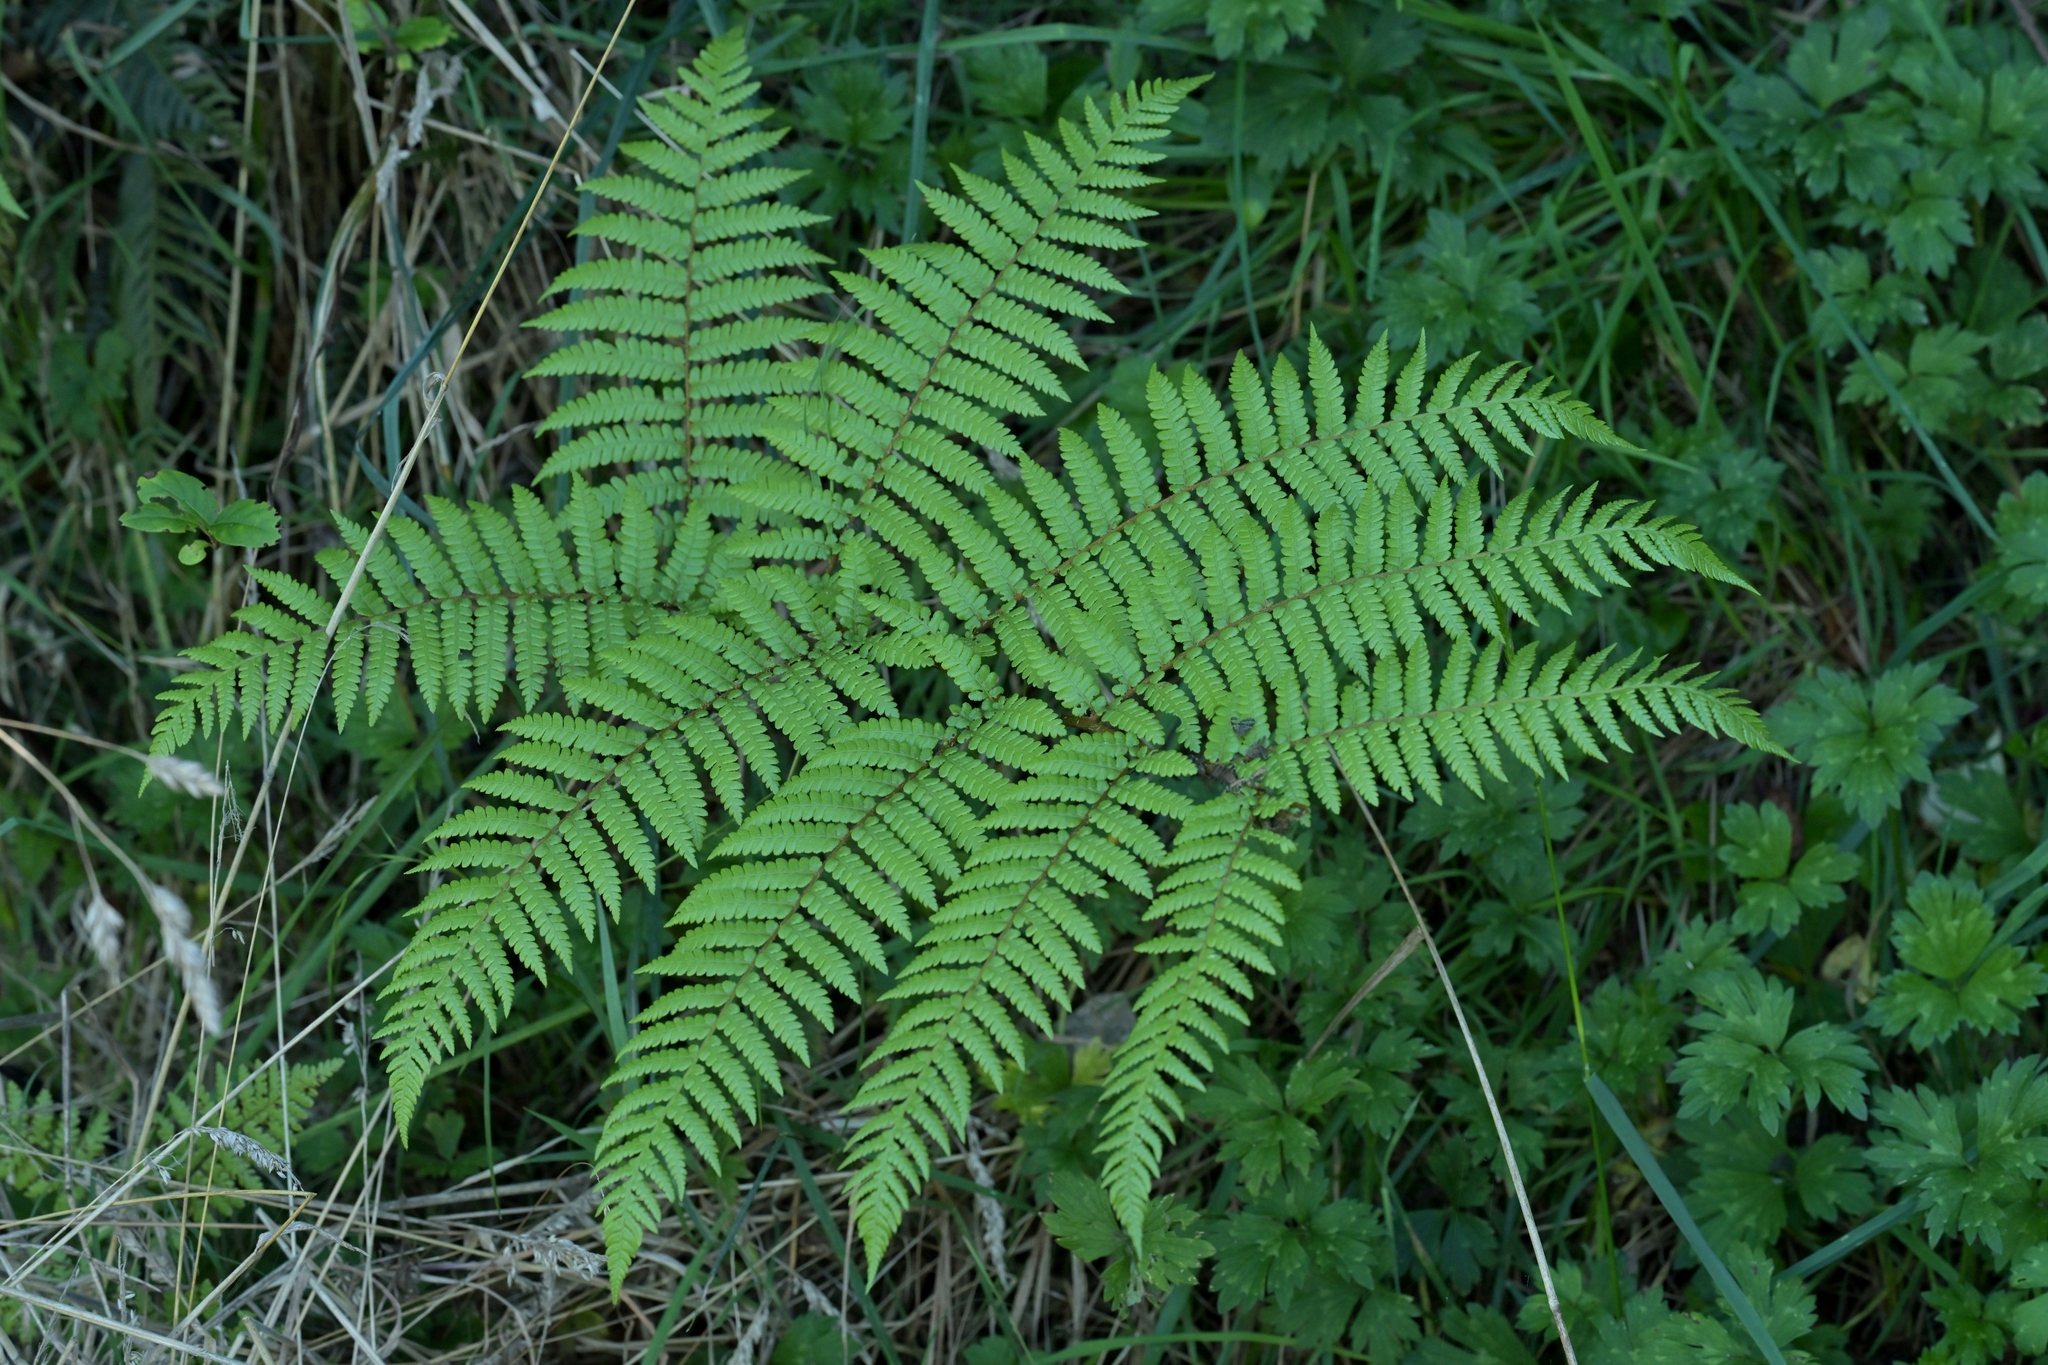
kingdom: Plantae
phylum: Tracheophyta
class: Polypodiopsida
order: Cyatheales
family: Cyatheaceae
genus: Sphaeropteris
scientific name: Sphaeropteris medullaris
